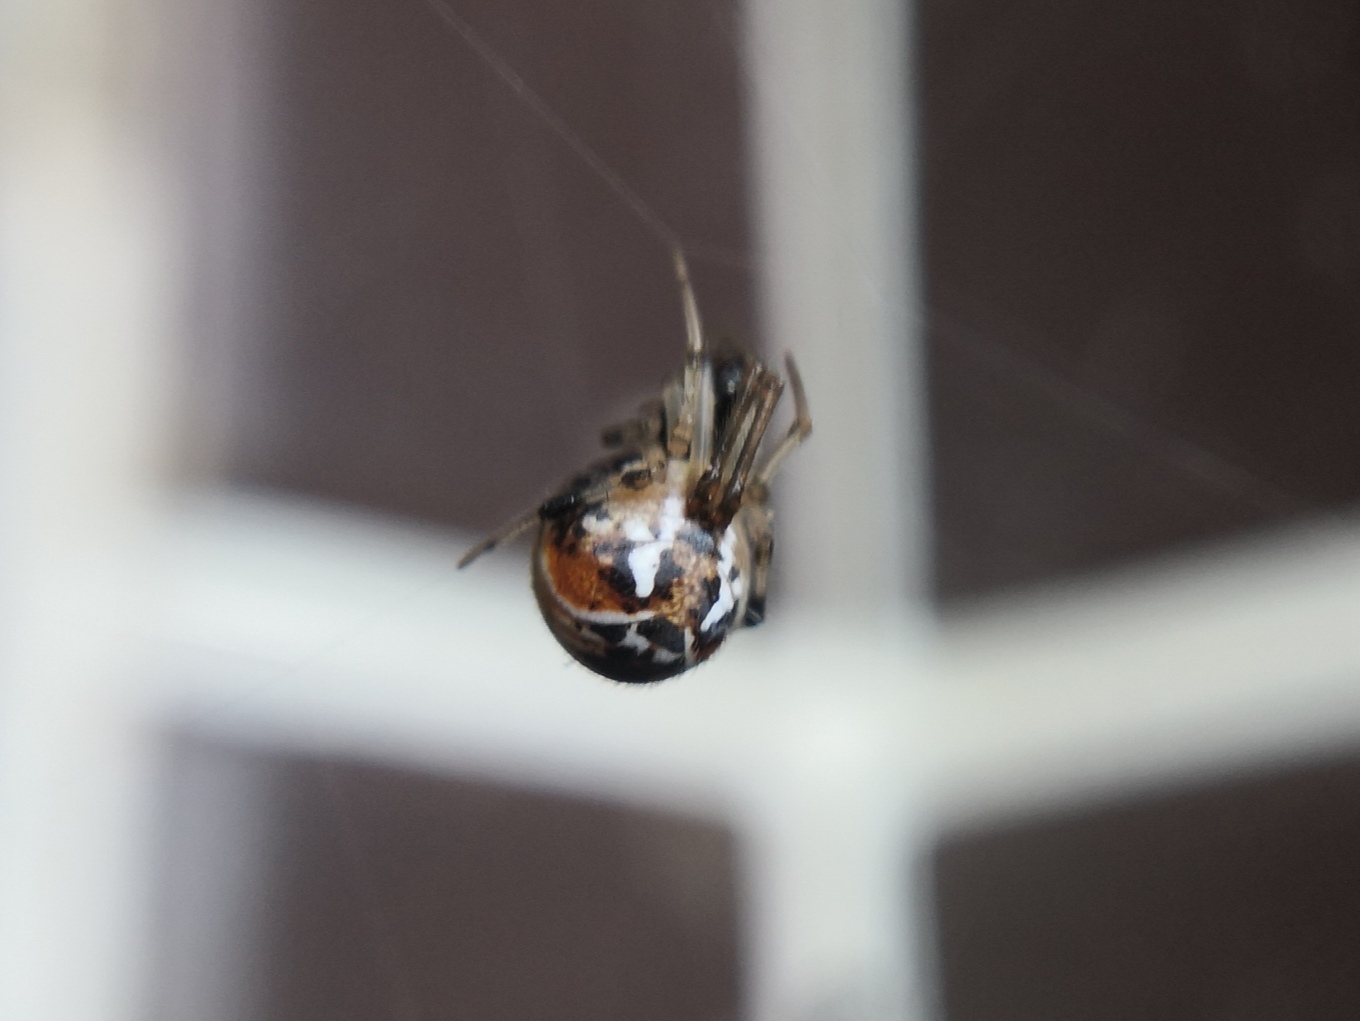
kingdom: Animalia
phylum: Arthropoda
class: Arachnida
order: Araneae
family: Theridiidae
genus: Parasteatoda
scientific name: Parasteatoda lunata
